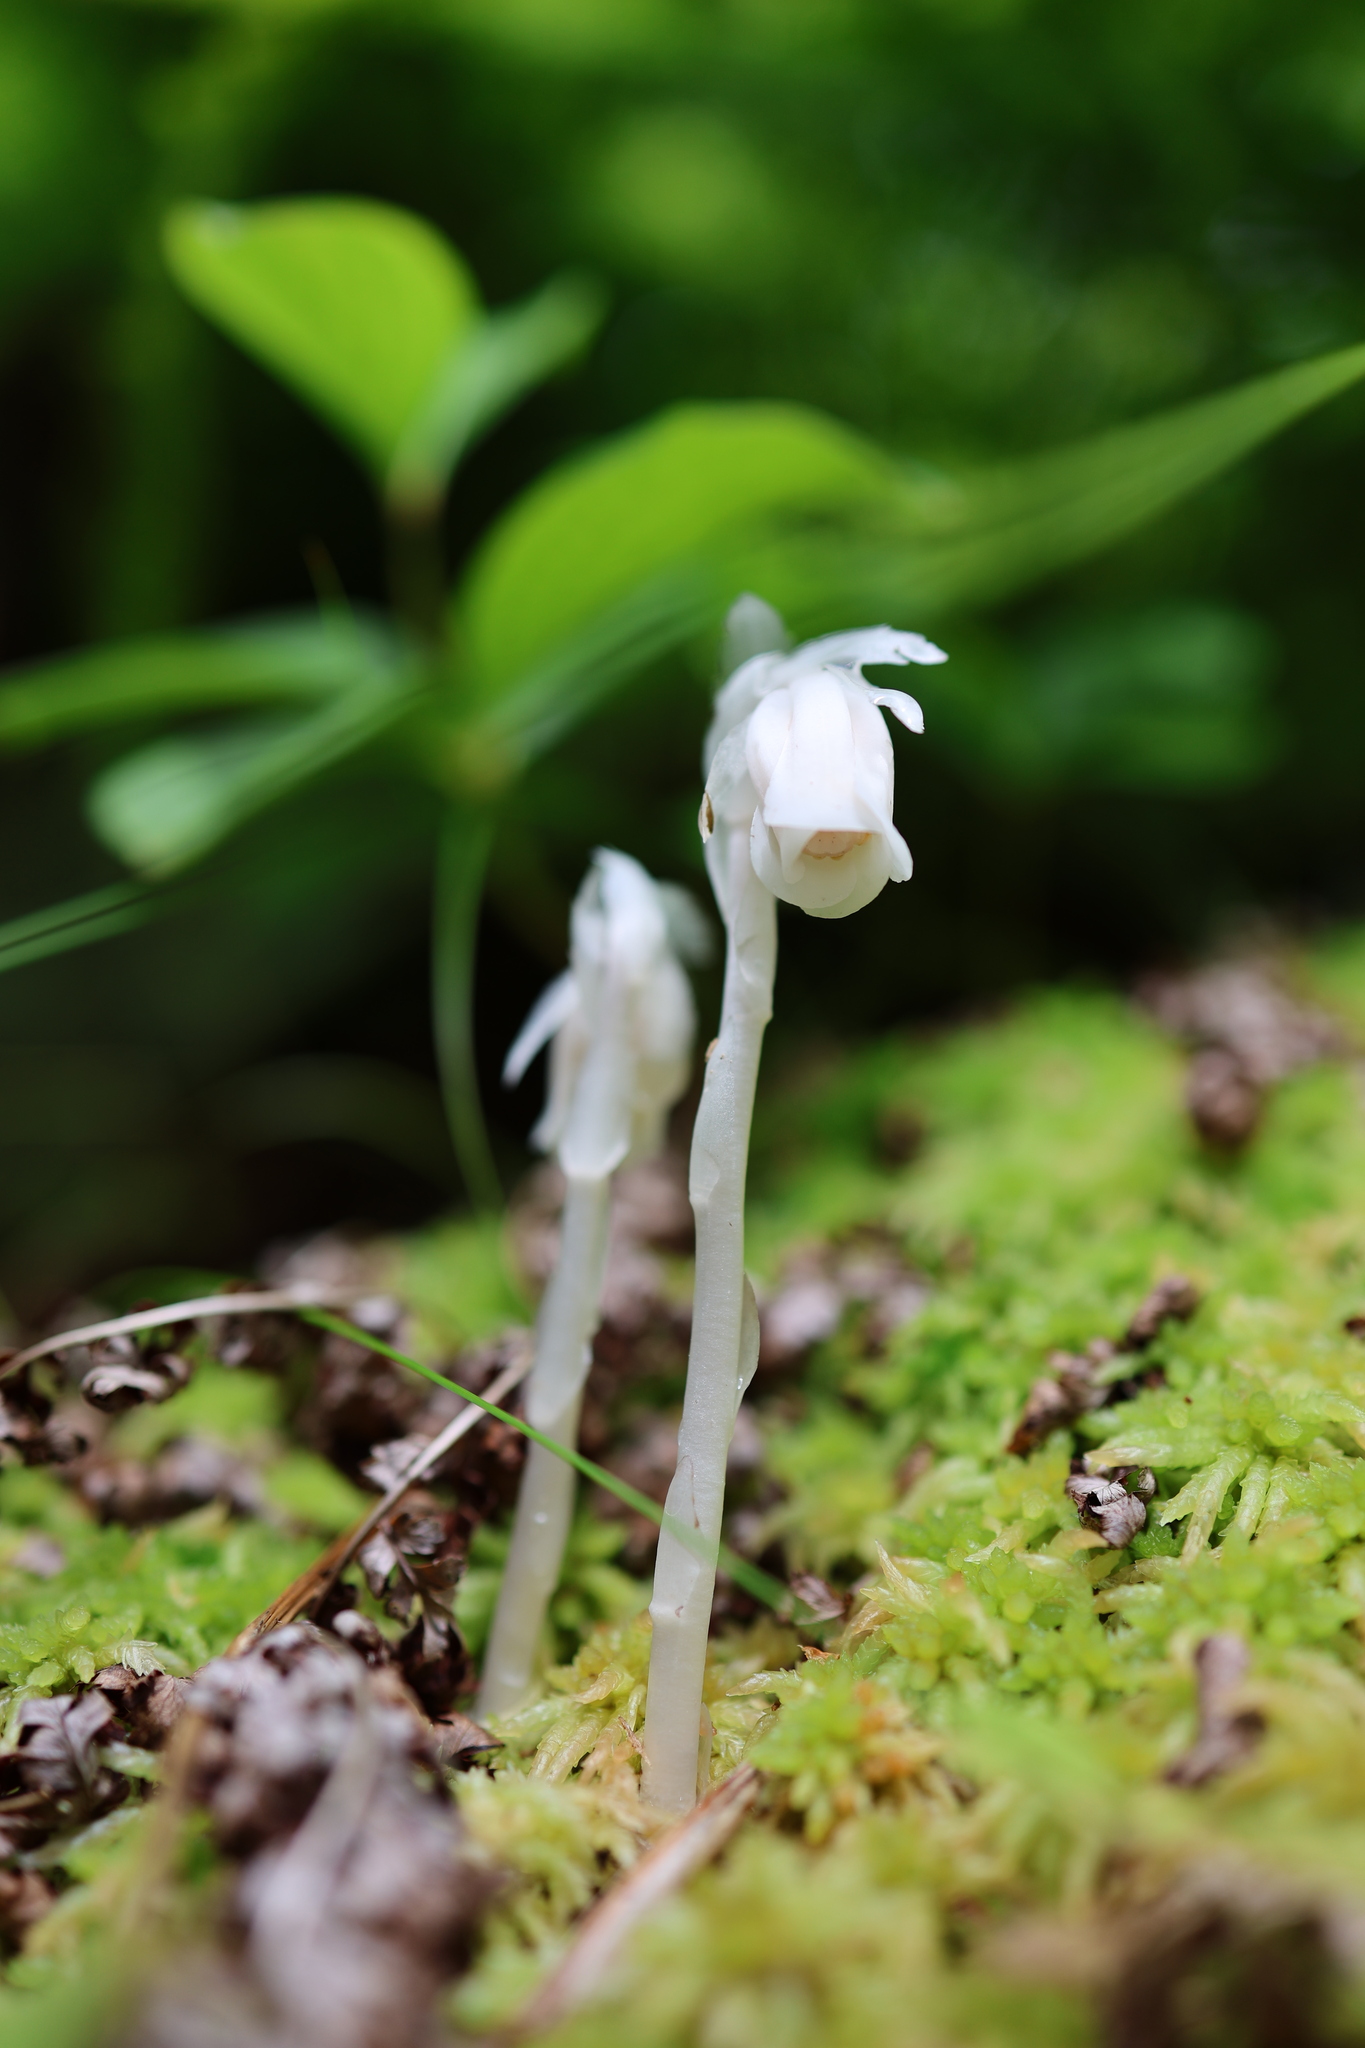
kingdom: Plantae
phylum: Tracheophyta
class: Magnoliopsida
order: Ericales
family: Ericaceae
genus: Monotropa
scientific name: Monotropa uniflora
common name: Convulsion root
